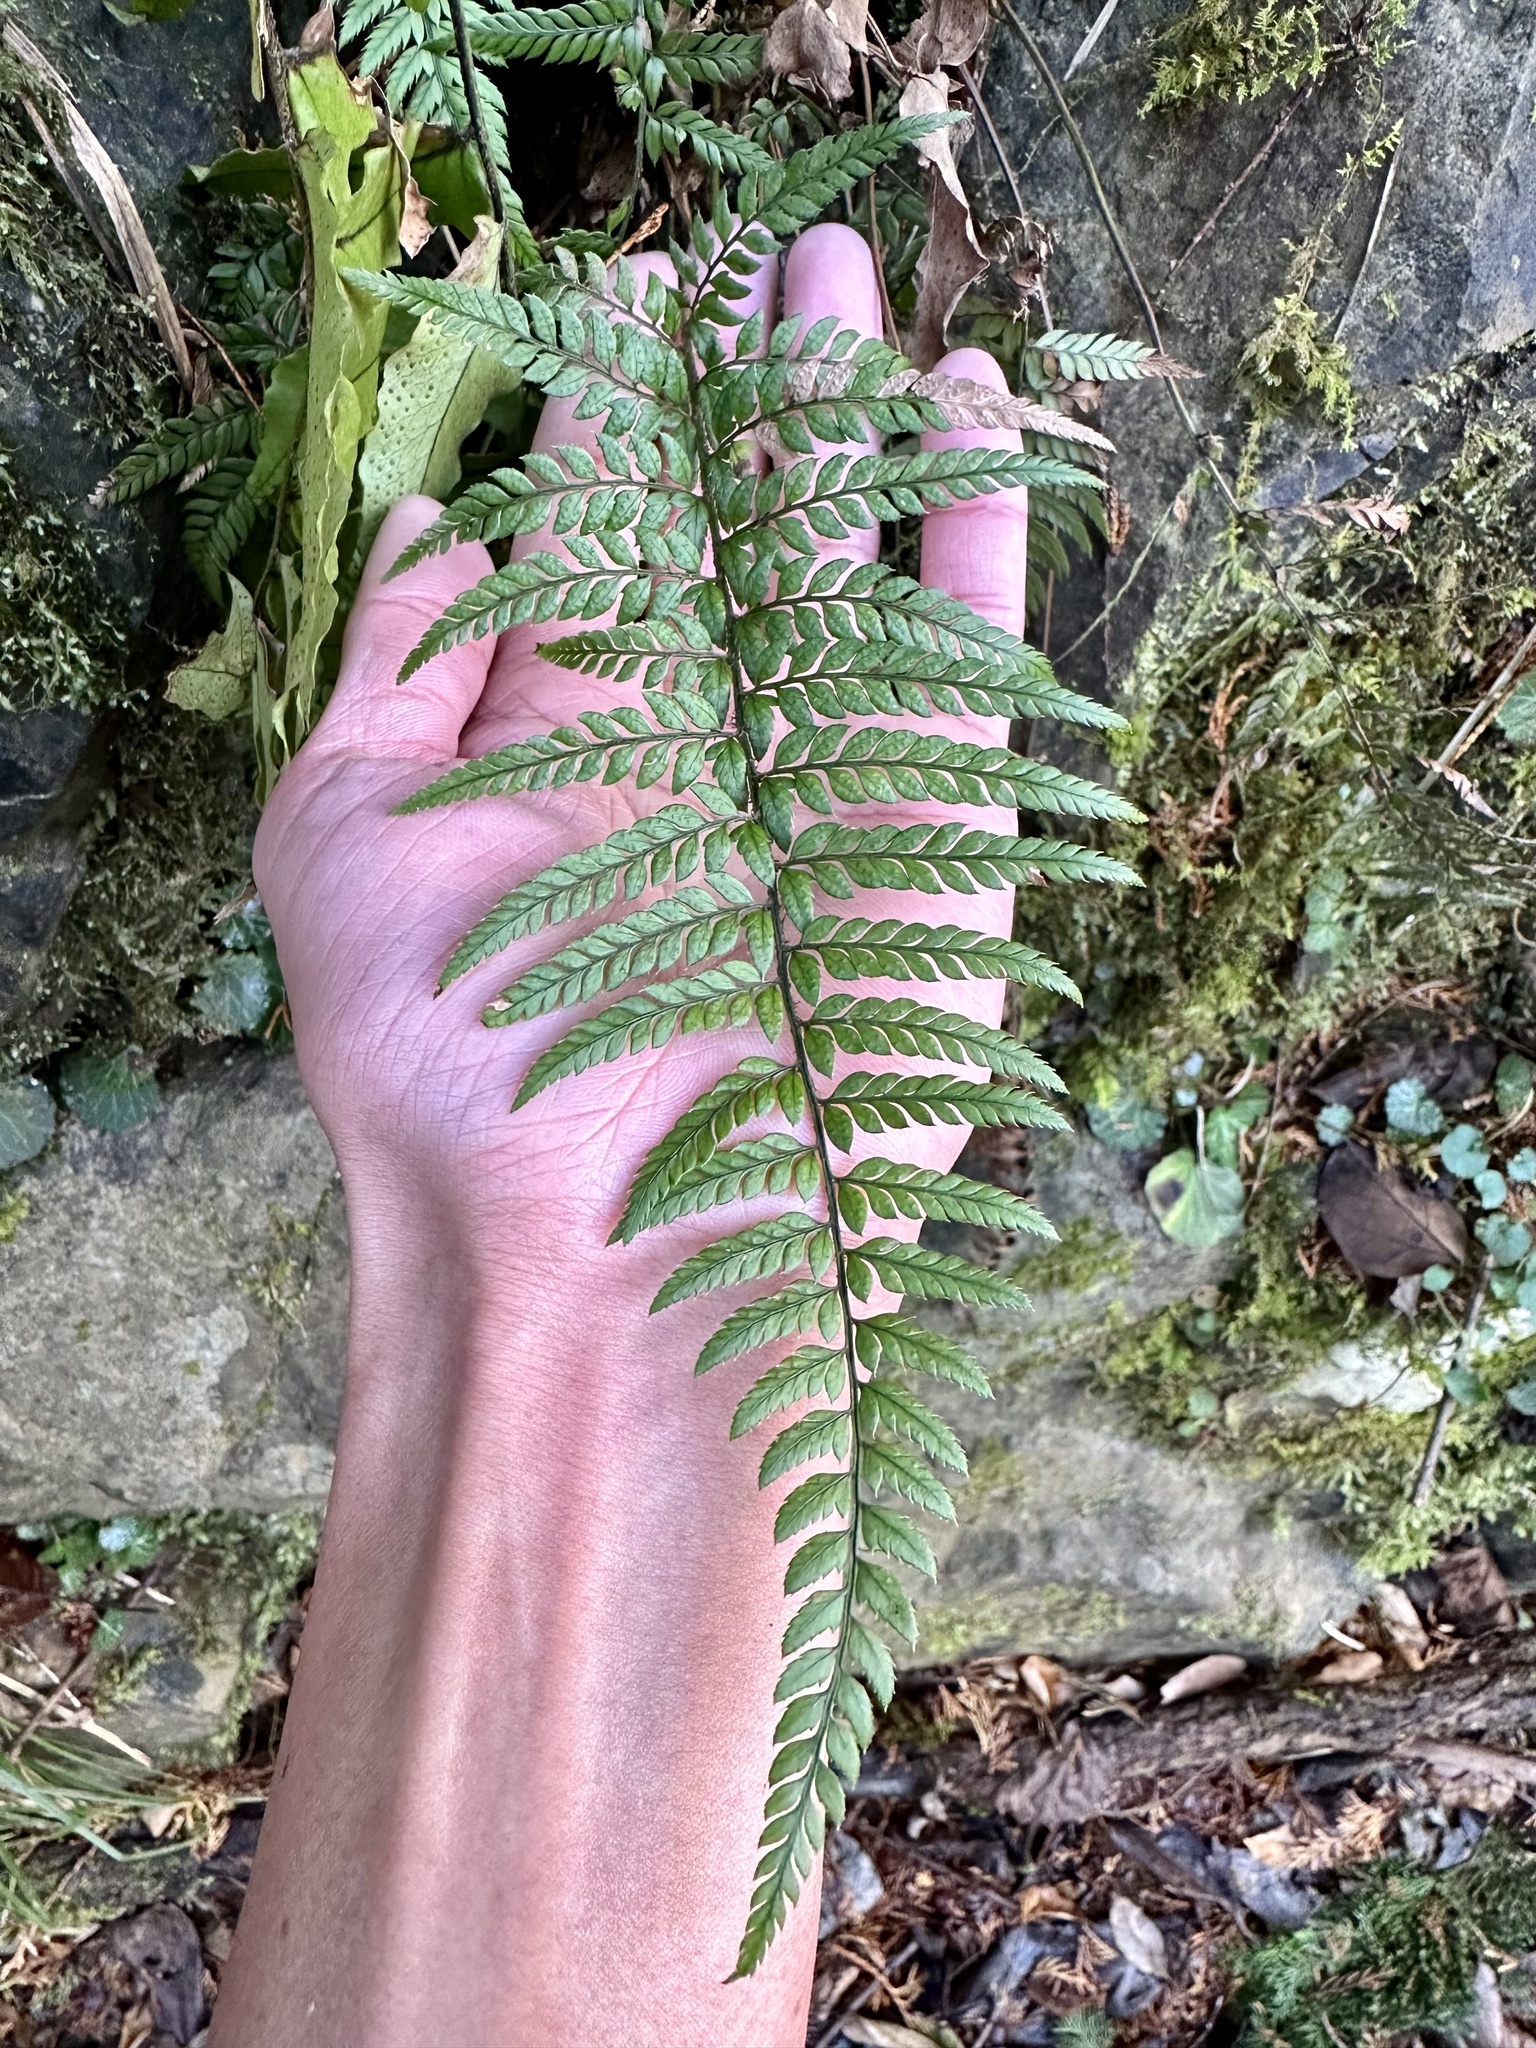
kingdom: Plantae
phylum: Tracheophyta
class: Polypodiopsida
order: Polypodiales
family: Dryopteridaceae
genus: Polystichum
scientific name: Polystichum luctuosum
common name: Korean rockfern
